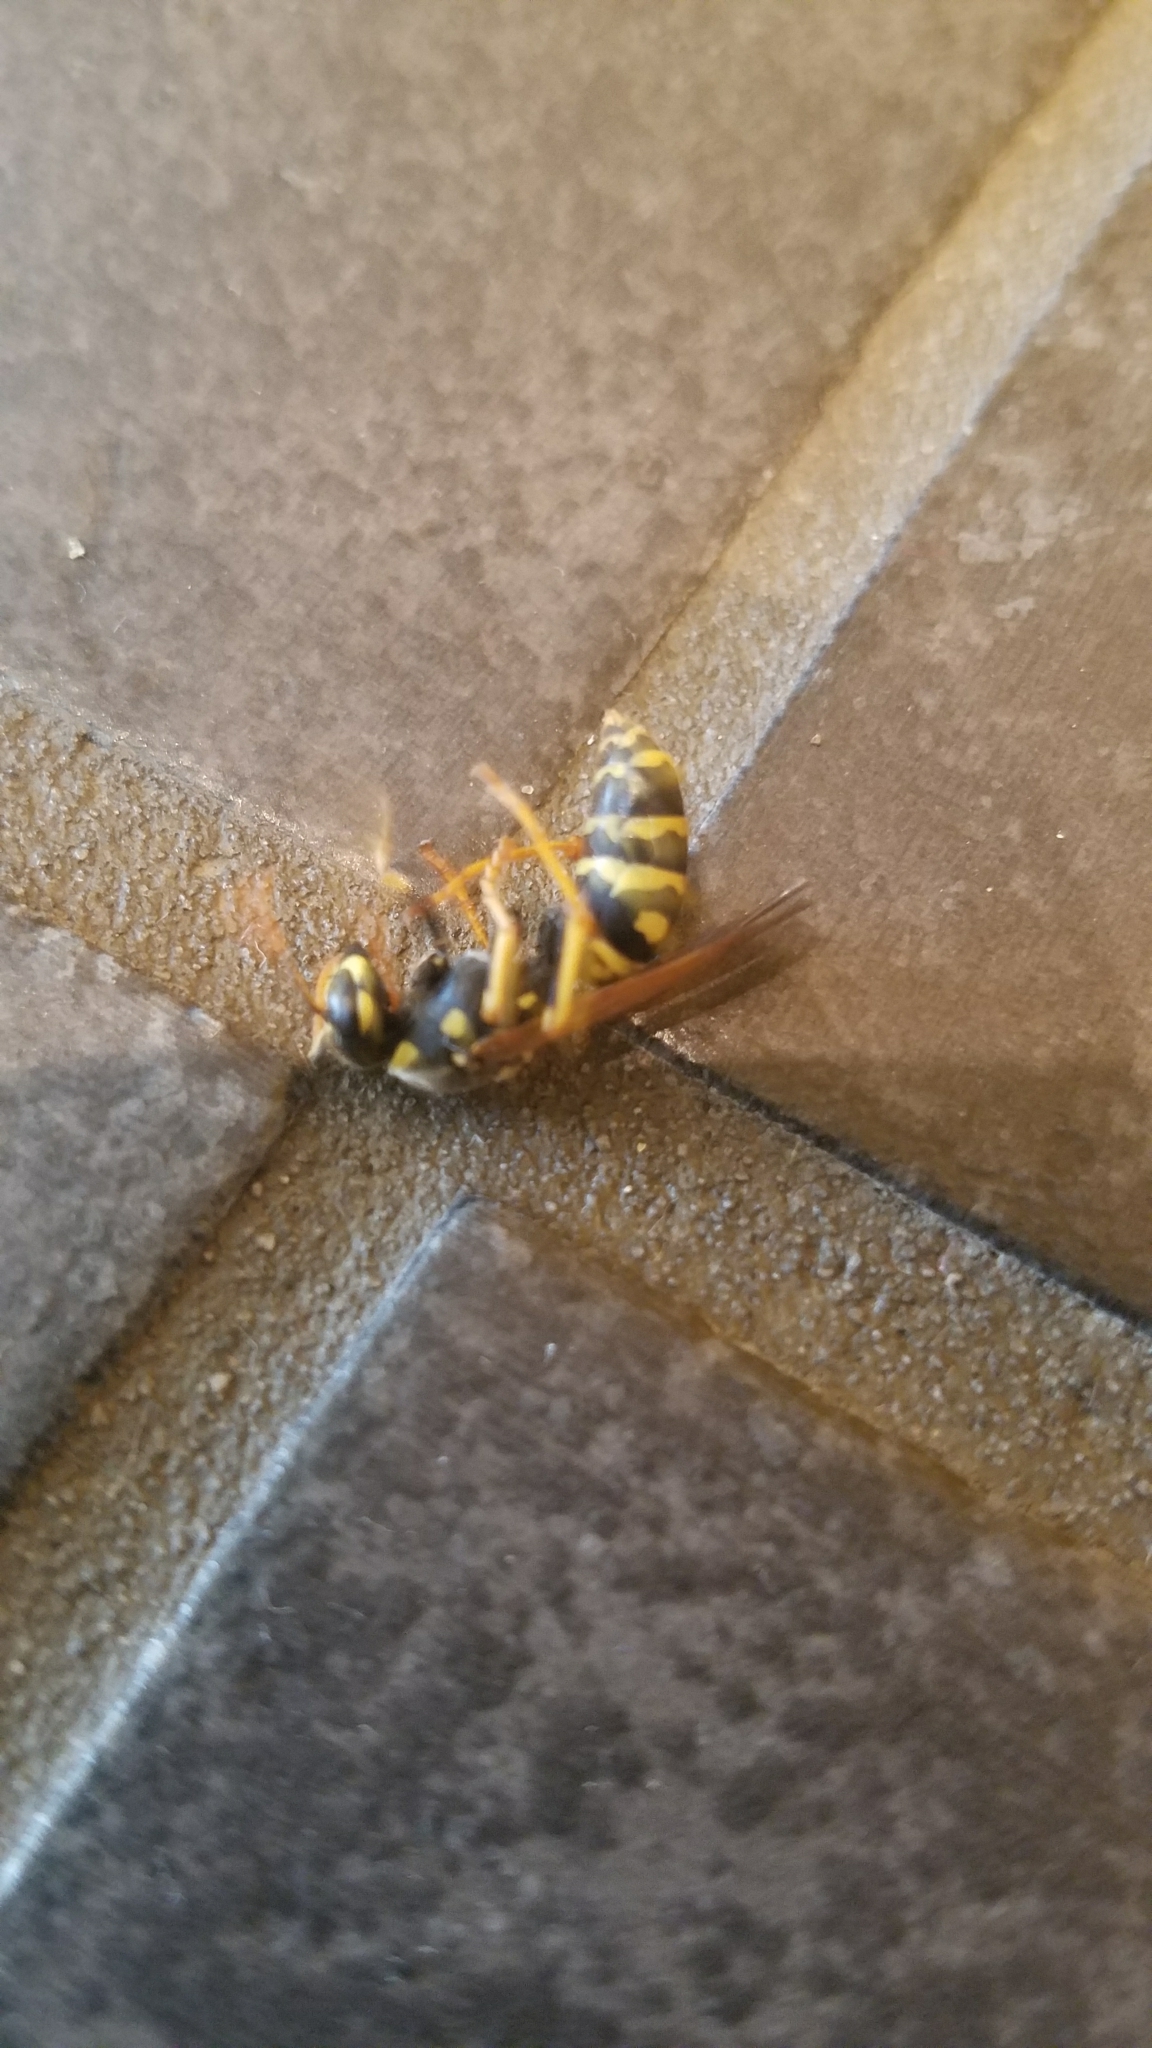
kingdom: Animalia
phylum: Arthropoda
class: Insecta
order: Hymenoptera
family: Eumenidae
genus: Polistes
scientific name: Polistes dominula
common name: Paper wasp
